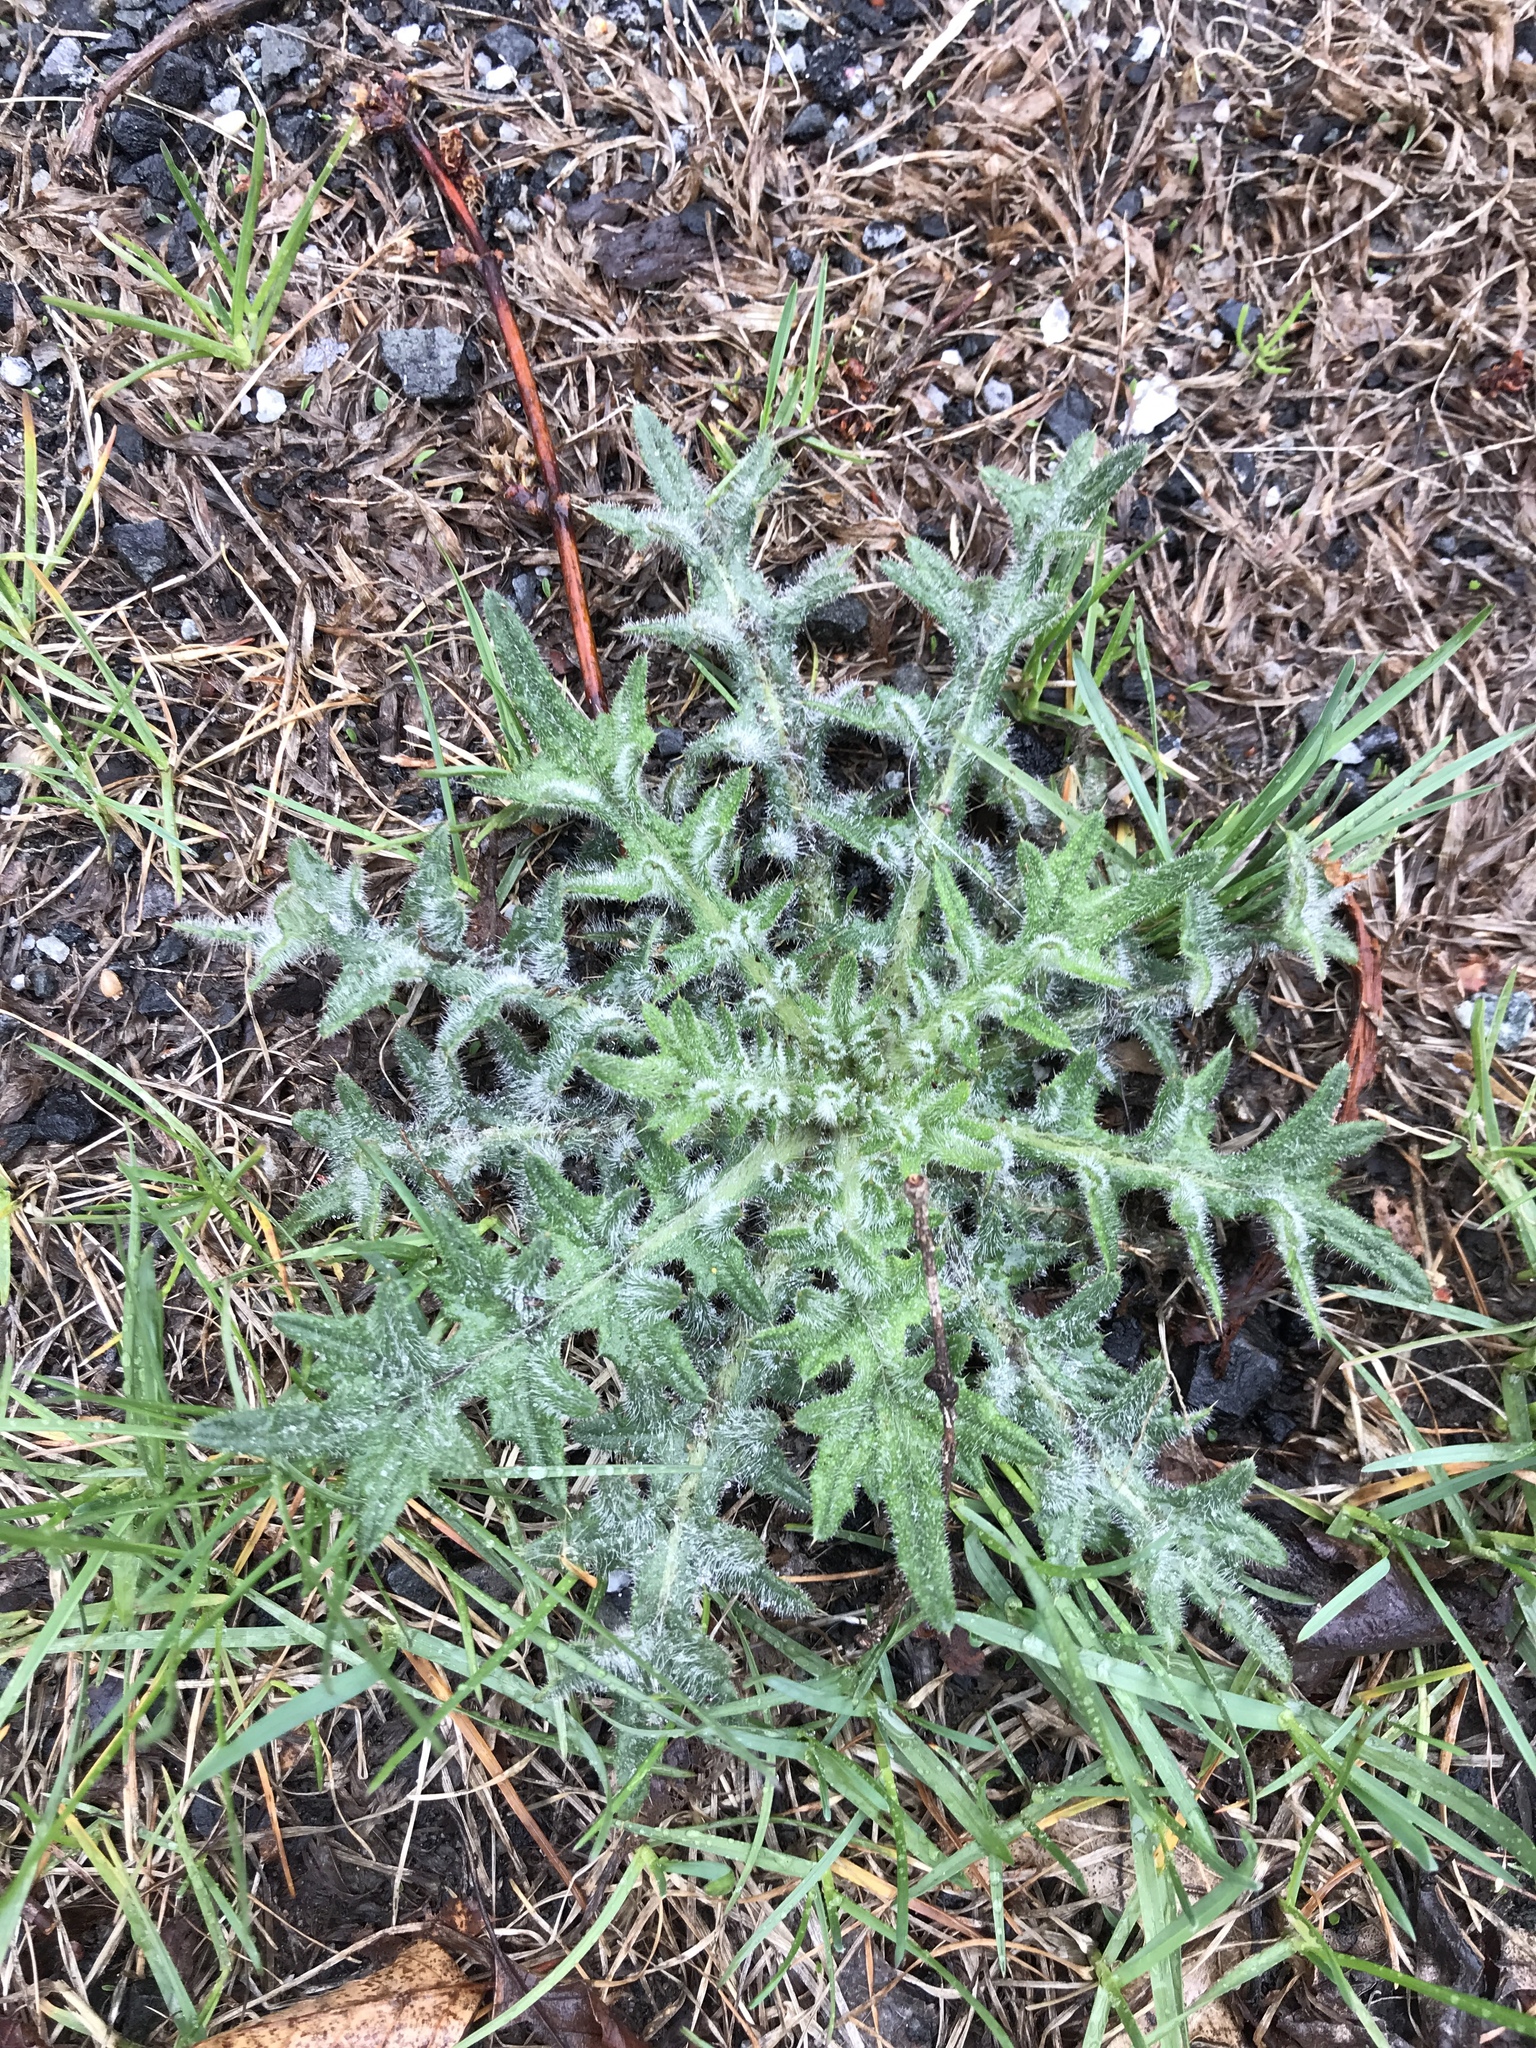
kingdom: Plantae
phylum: Tracheophyta
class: Magnoliopsida
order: Asterales
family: Asteraceae
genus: Cirsium
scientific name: Cirsium vulgare
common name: Bull thistle
